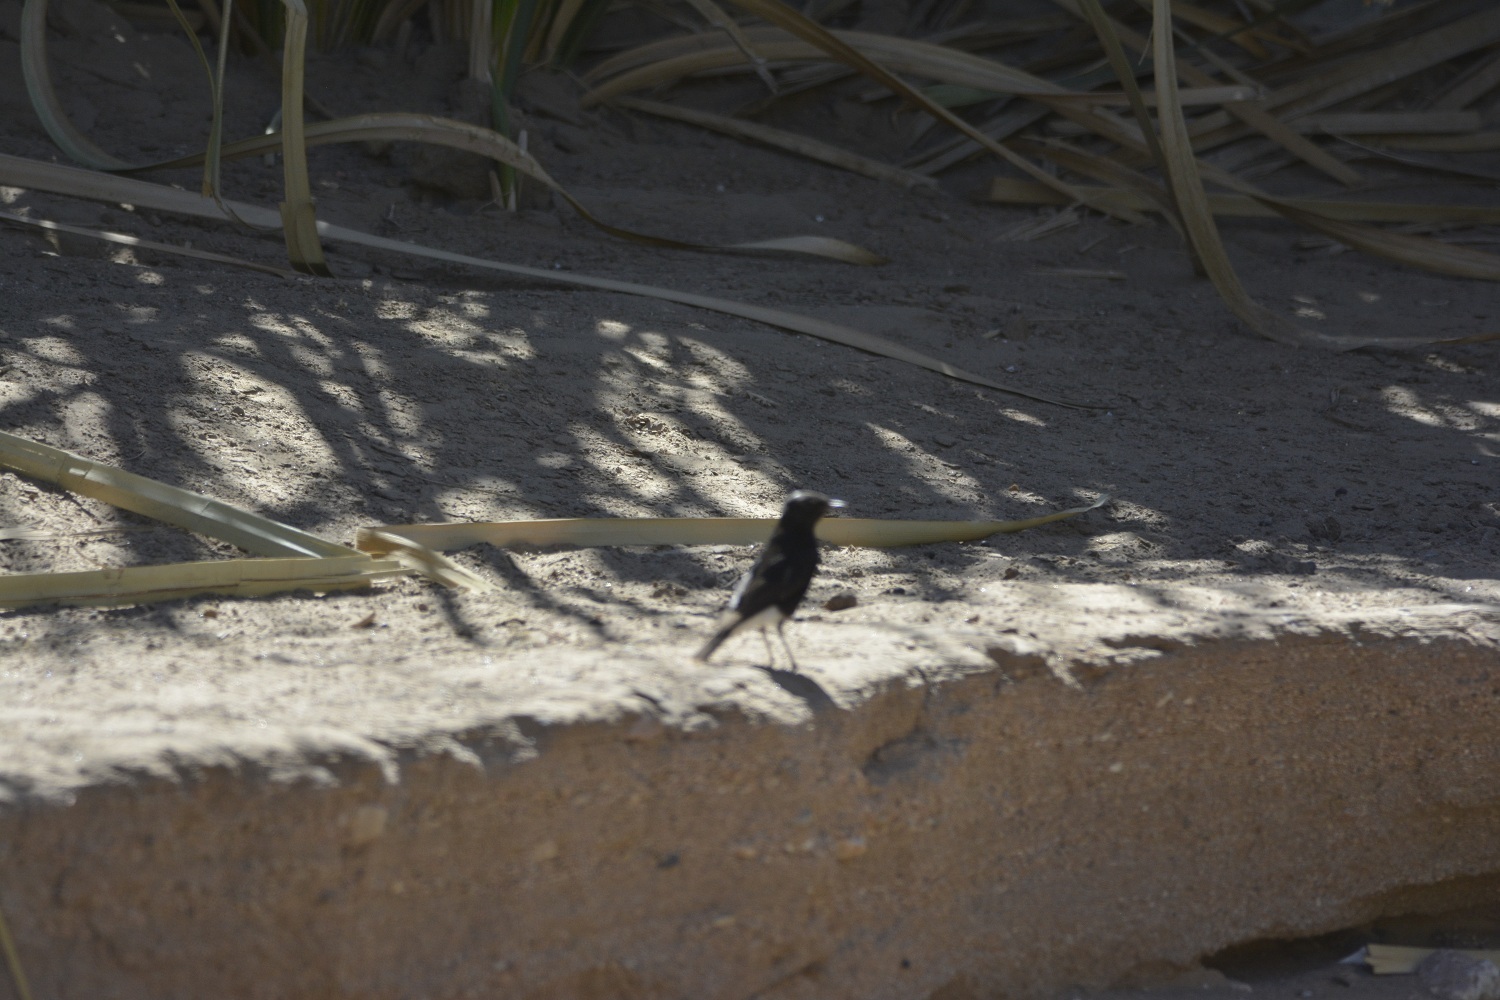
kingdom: Animalia
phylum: Chordata
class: Aves
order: Passeriformes
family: Muscicapidae
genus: Oenanthe
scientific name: Oenanthe leucopyga
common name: White-crowned wheatear
